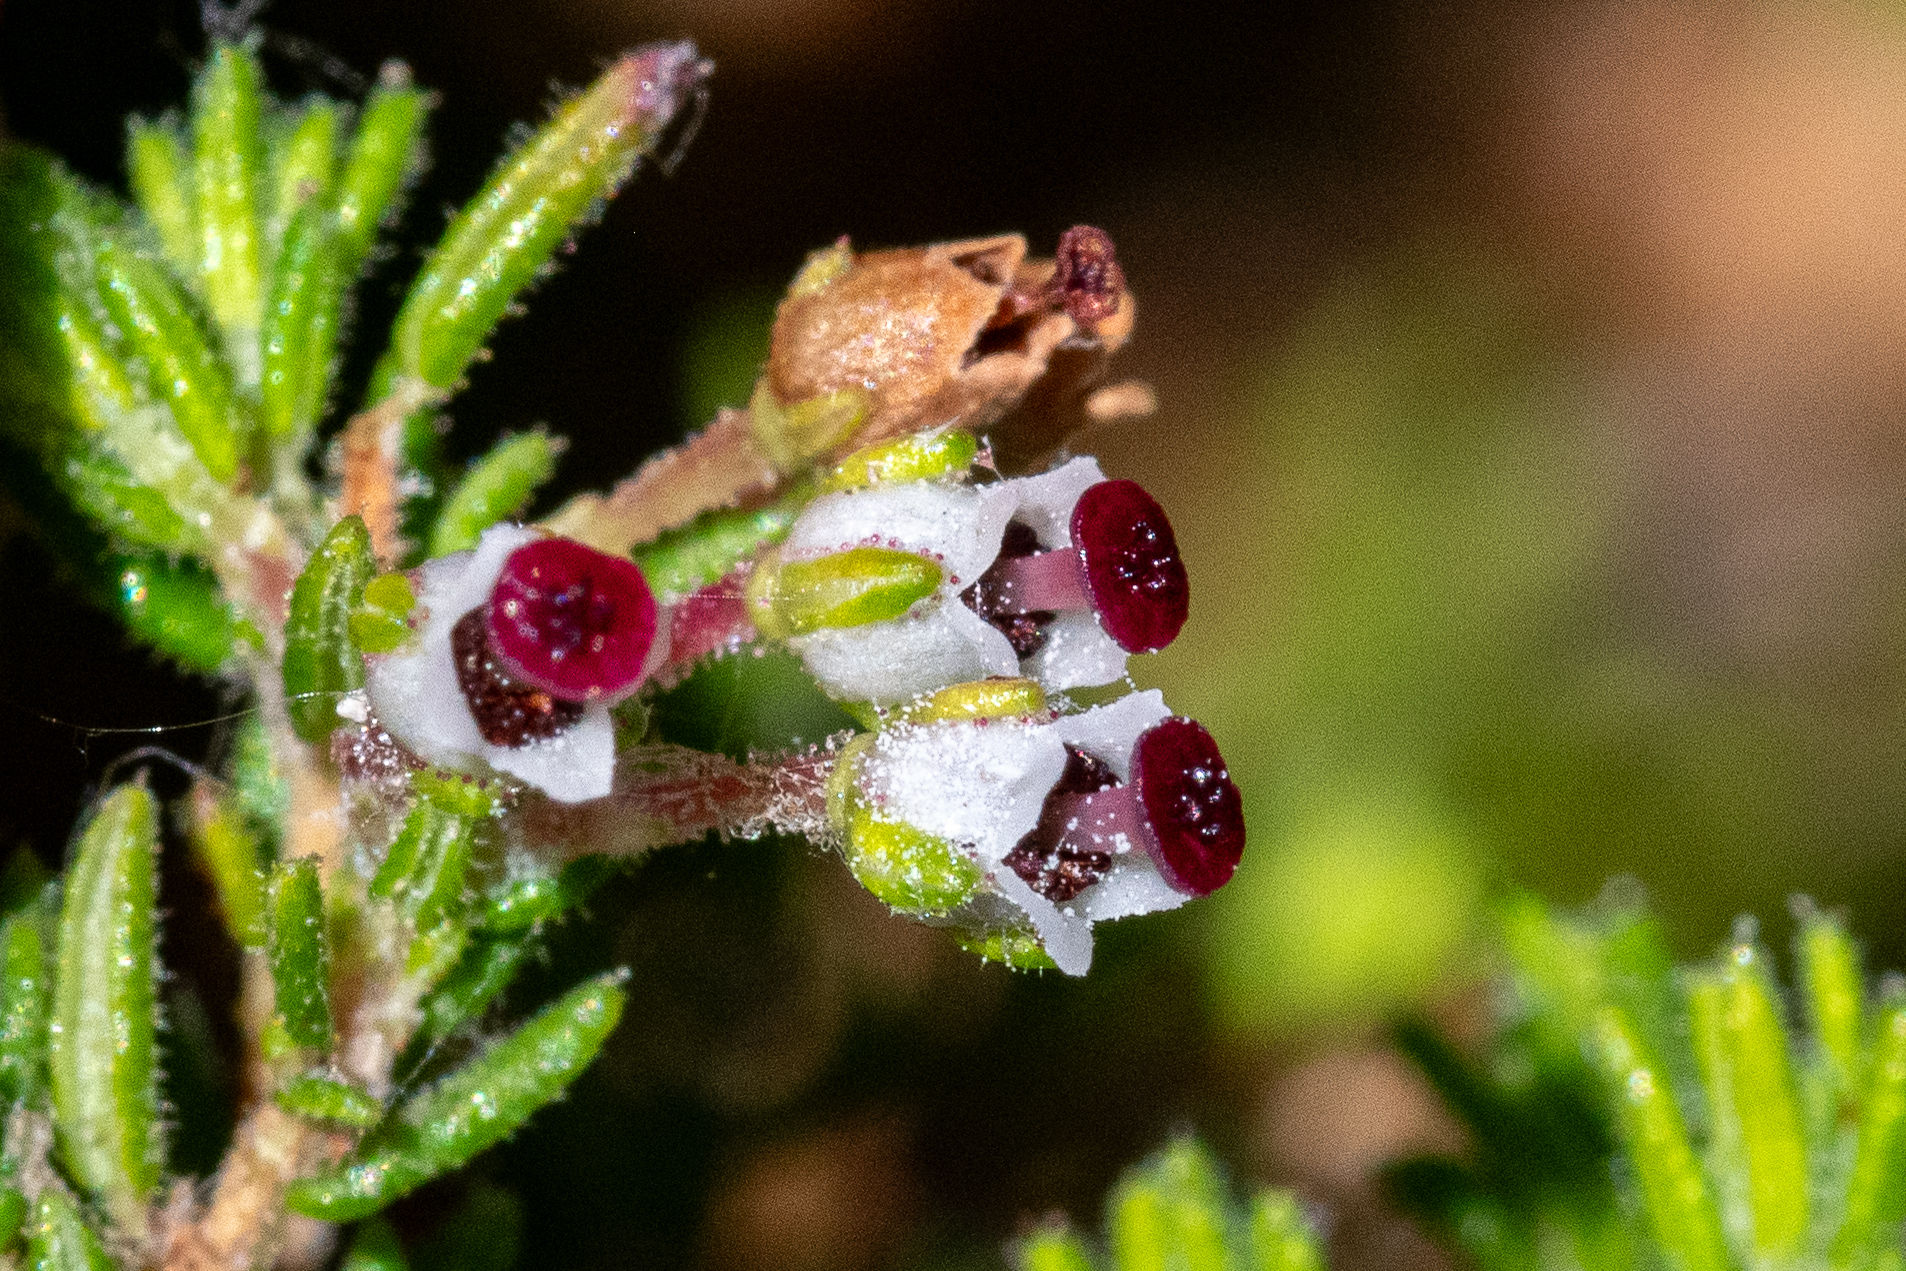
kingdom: Plantae
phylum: Tracheophyta
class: Magnoliopsida
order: Ericales
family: Ericaceae
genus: Erica
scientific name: Erica hispidula
